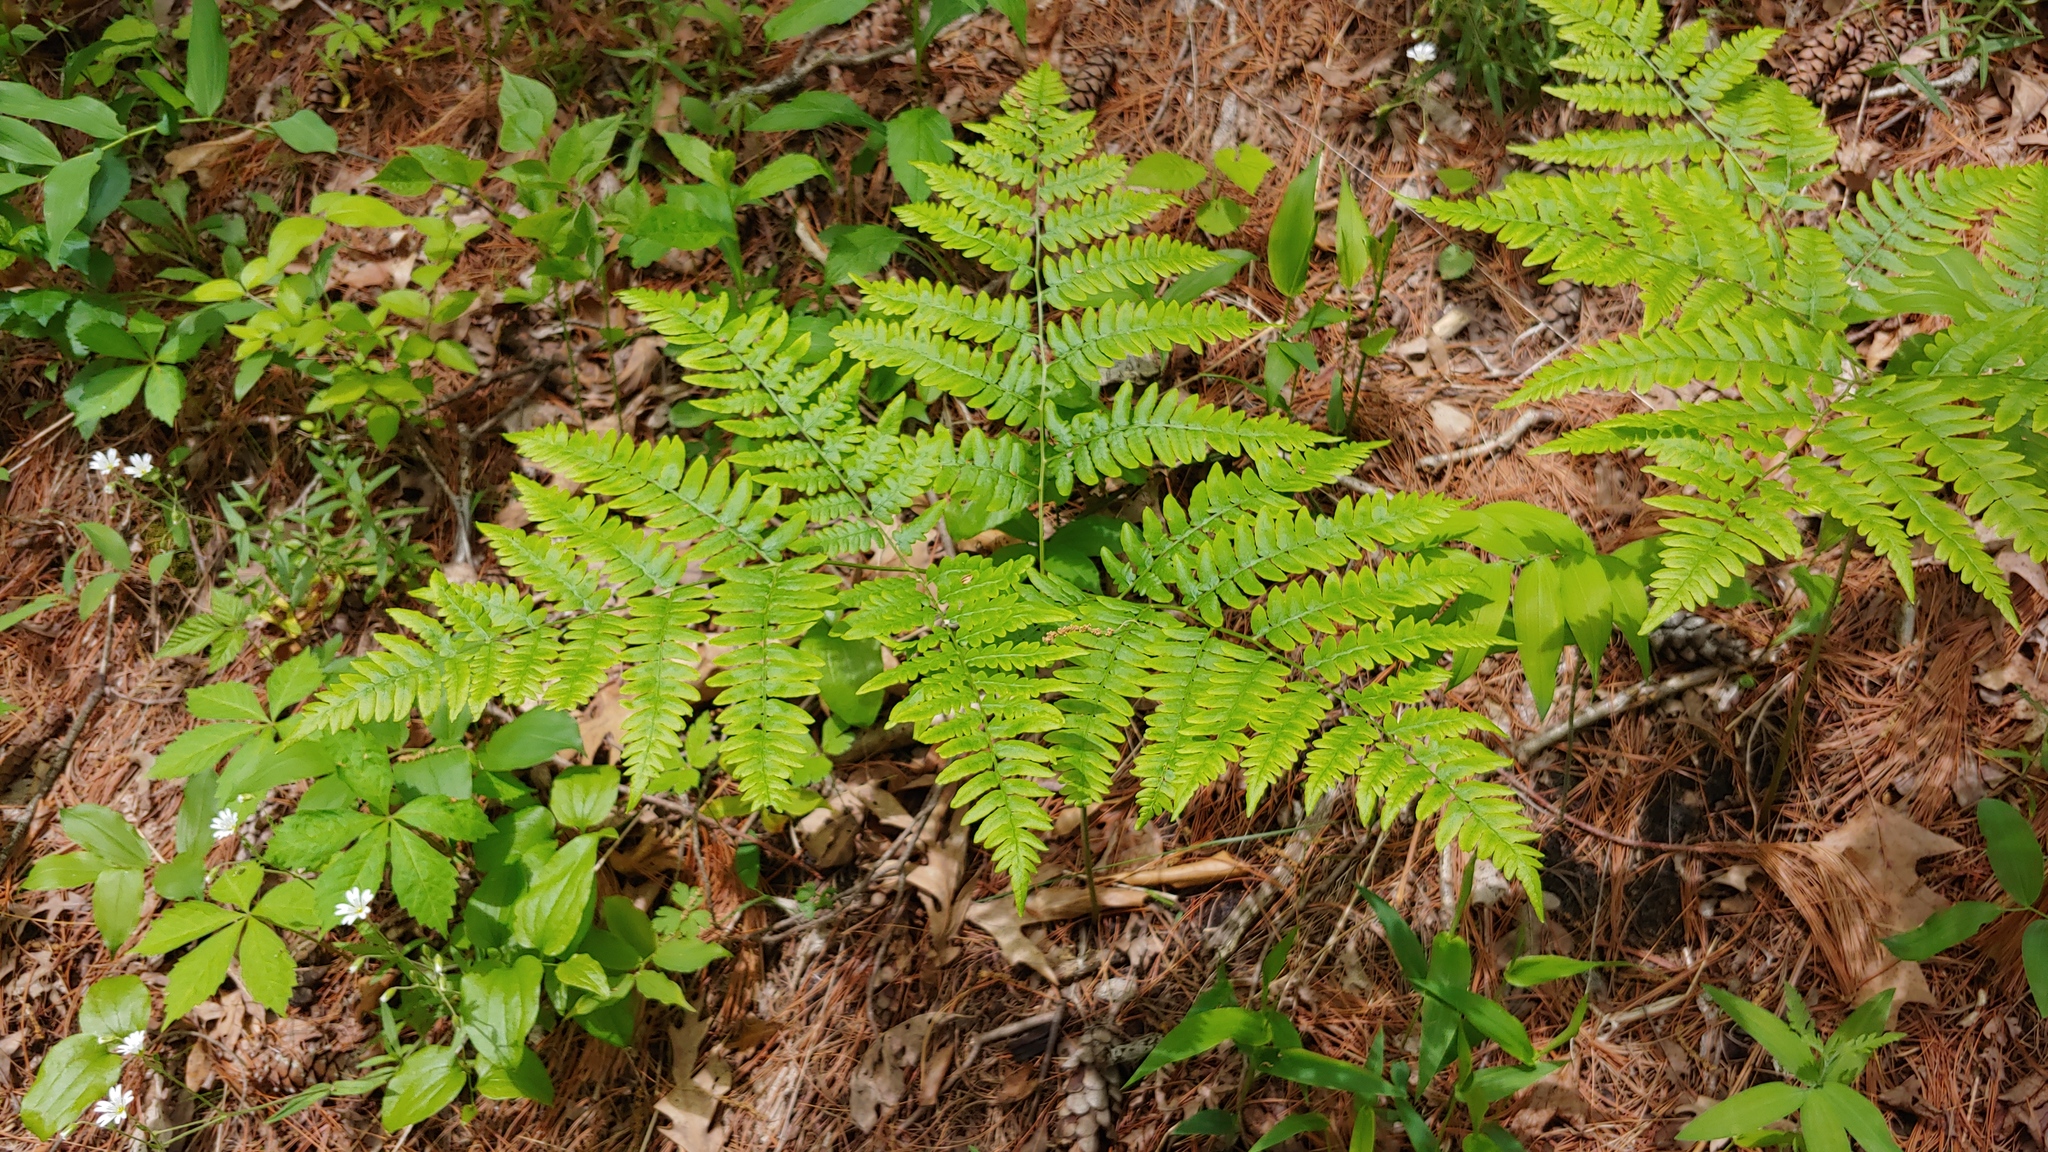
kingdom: Plantae
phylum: Tracheophyta
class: Polypodiopsida
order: Polypodiales
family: Dennstaedtiaceae
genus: Pteridium
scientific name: Pteridium aquilinum
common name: Bracken
